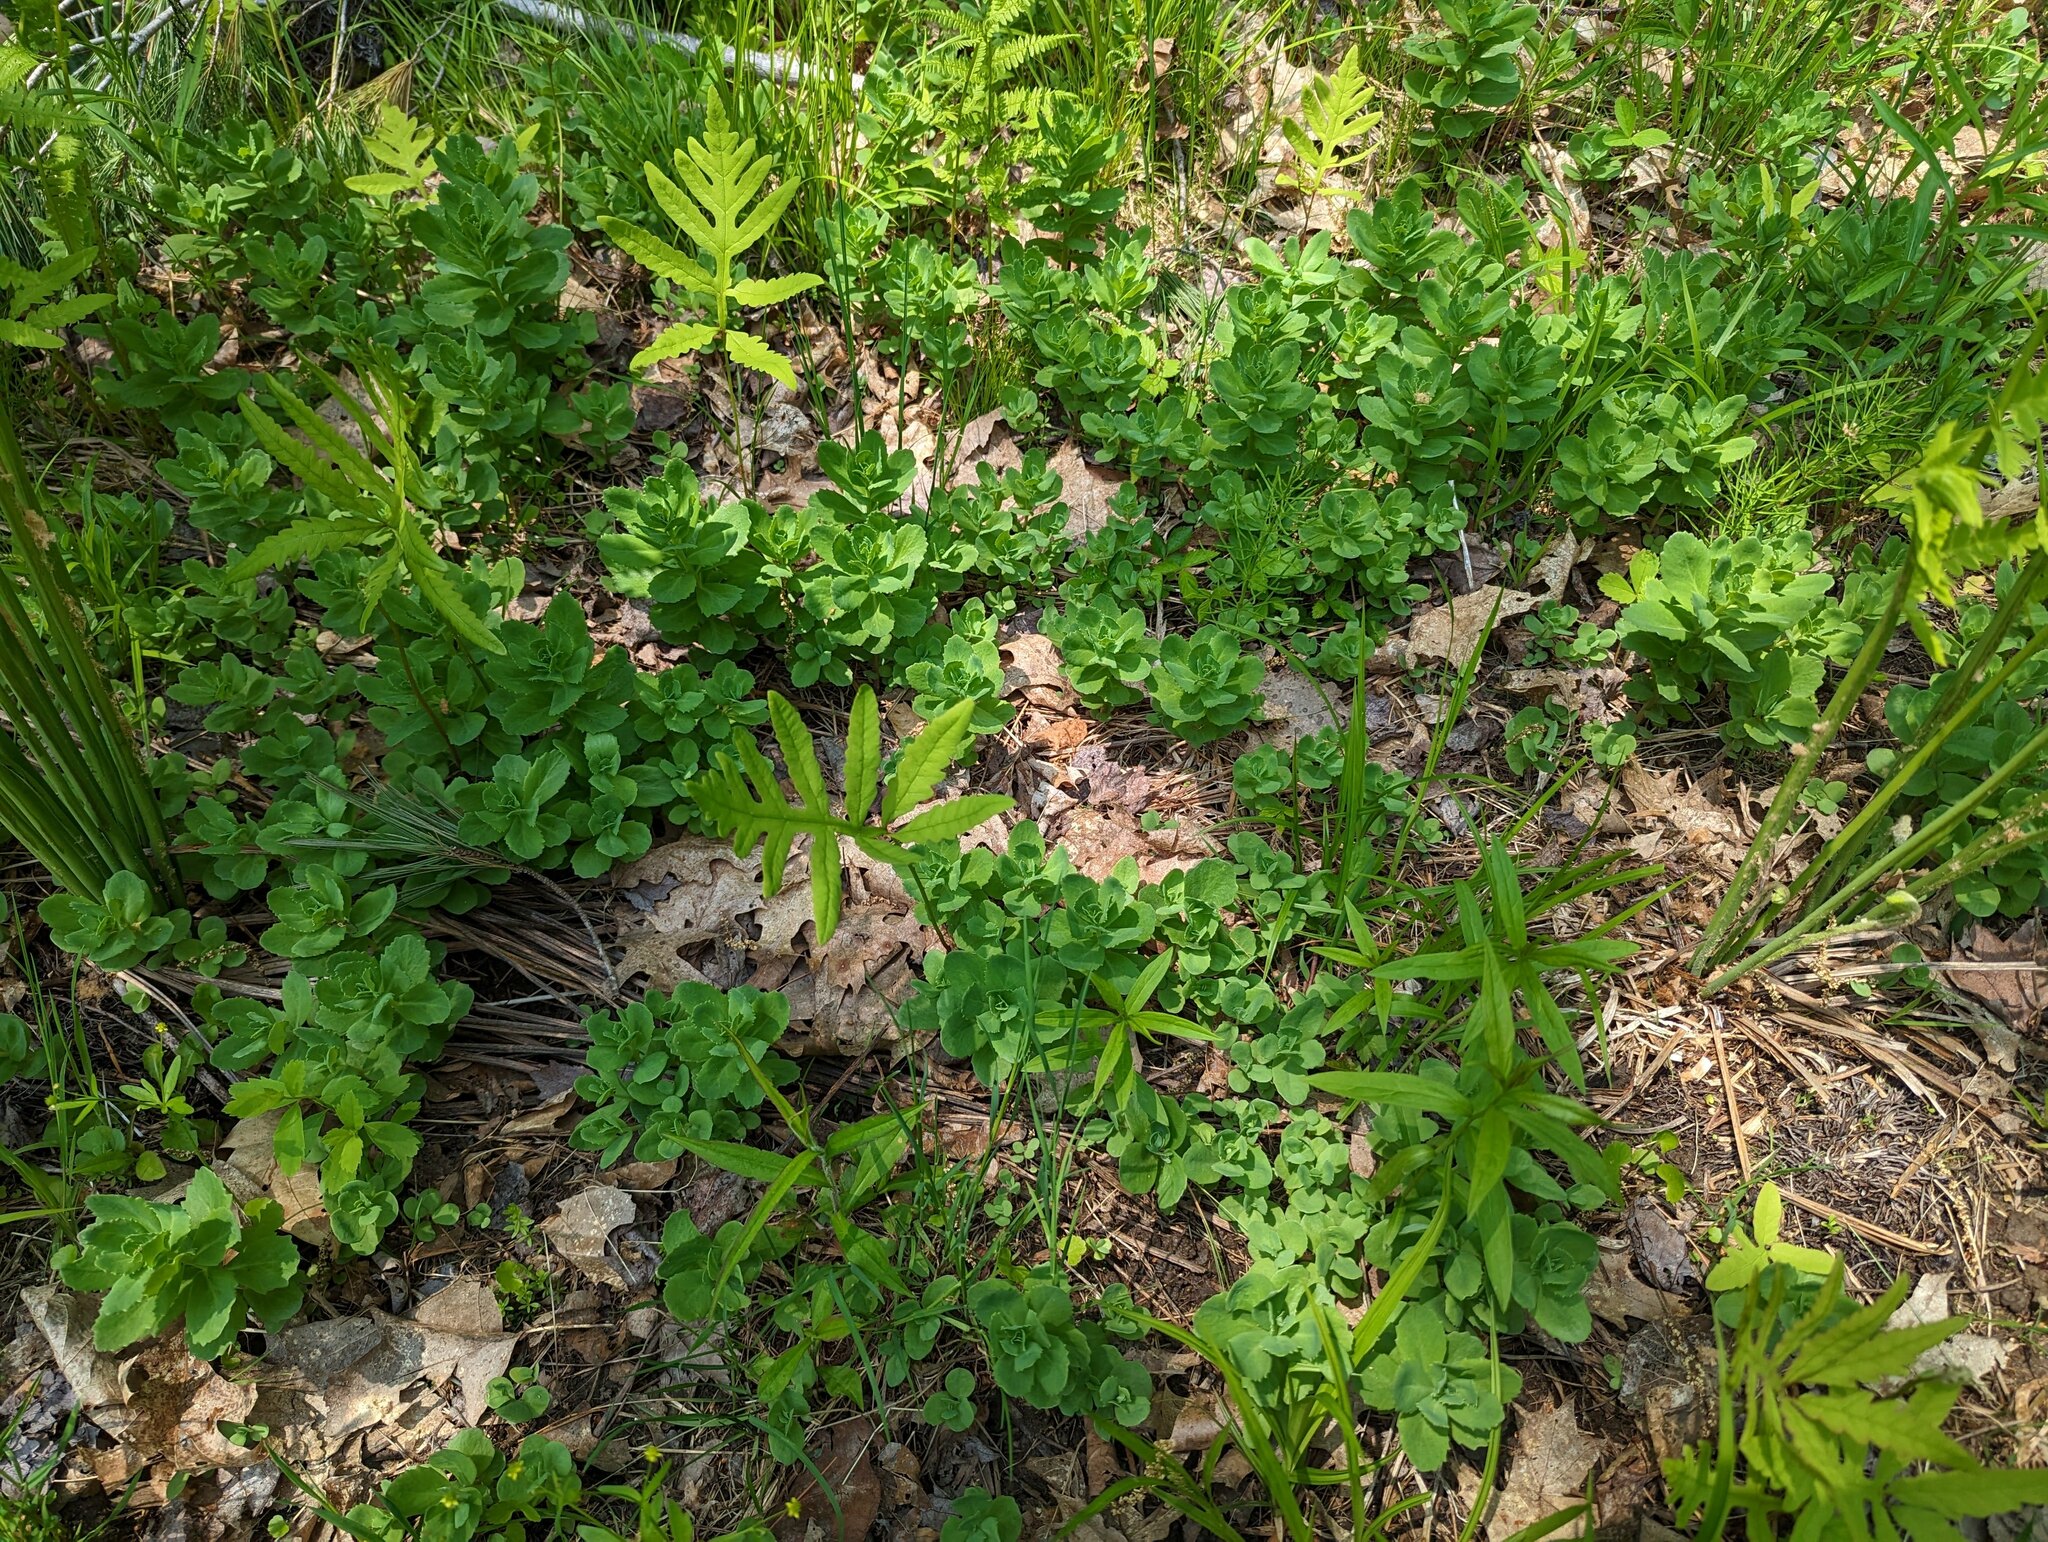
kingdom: Plantae
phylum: Tracheophyta
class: Polypodiopsida
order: Polypodiales
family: Onocleaceae
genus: Onoclea
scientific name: Onoclea sensibilis
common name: Sensitive fern
